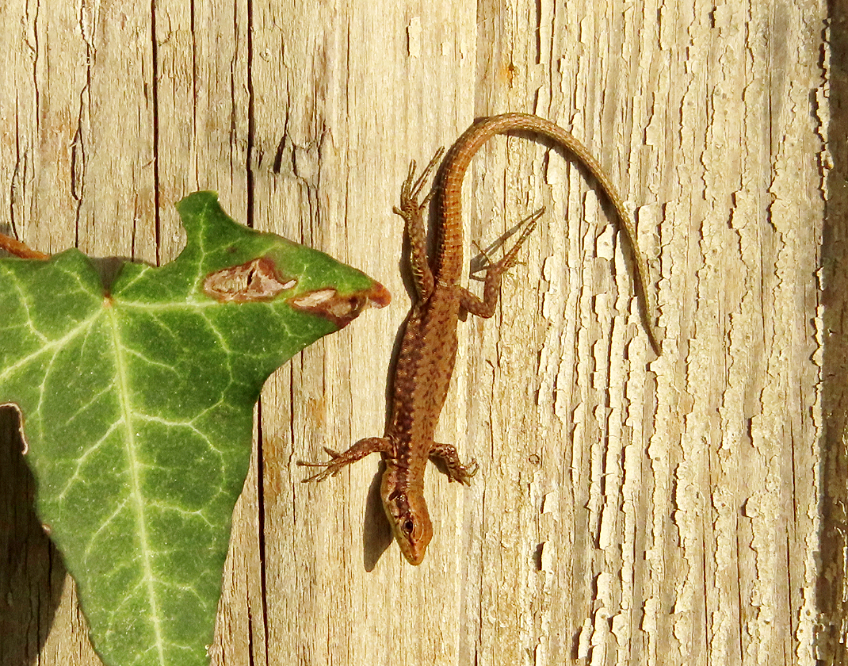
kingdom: Animalia
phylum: Chordata
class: Squamata
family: Lacertidae
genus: Darevskia
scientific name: Darevskia rudis
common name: Spiny-tailed lizard
